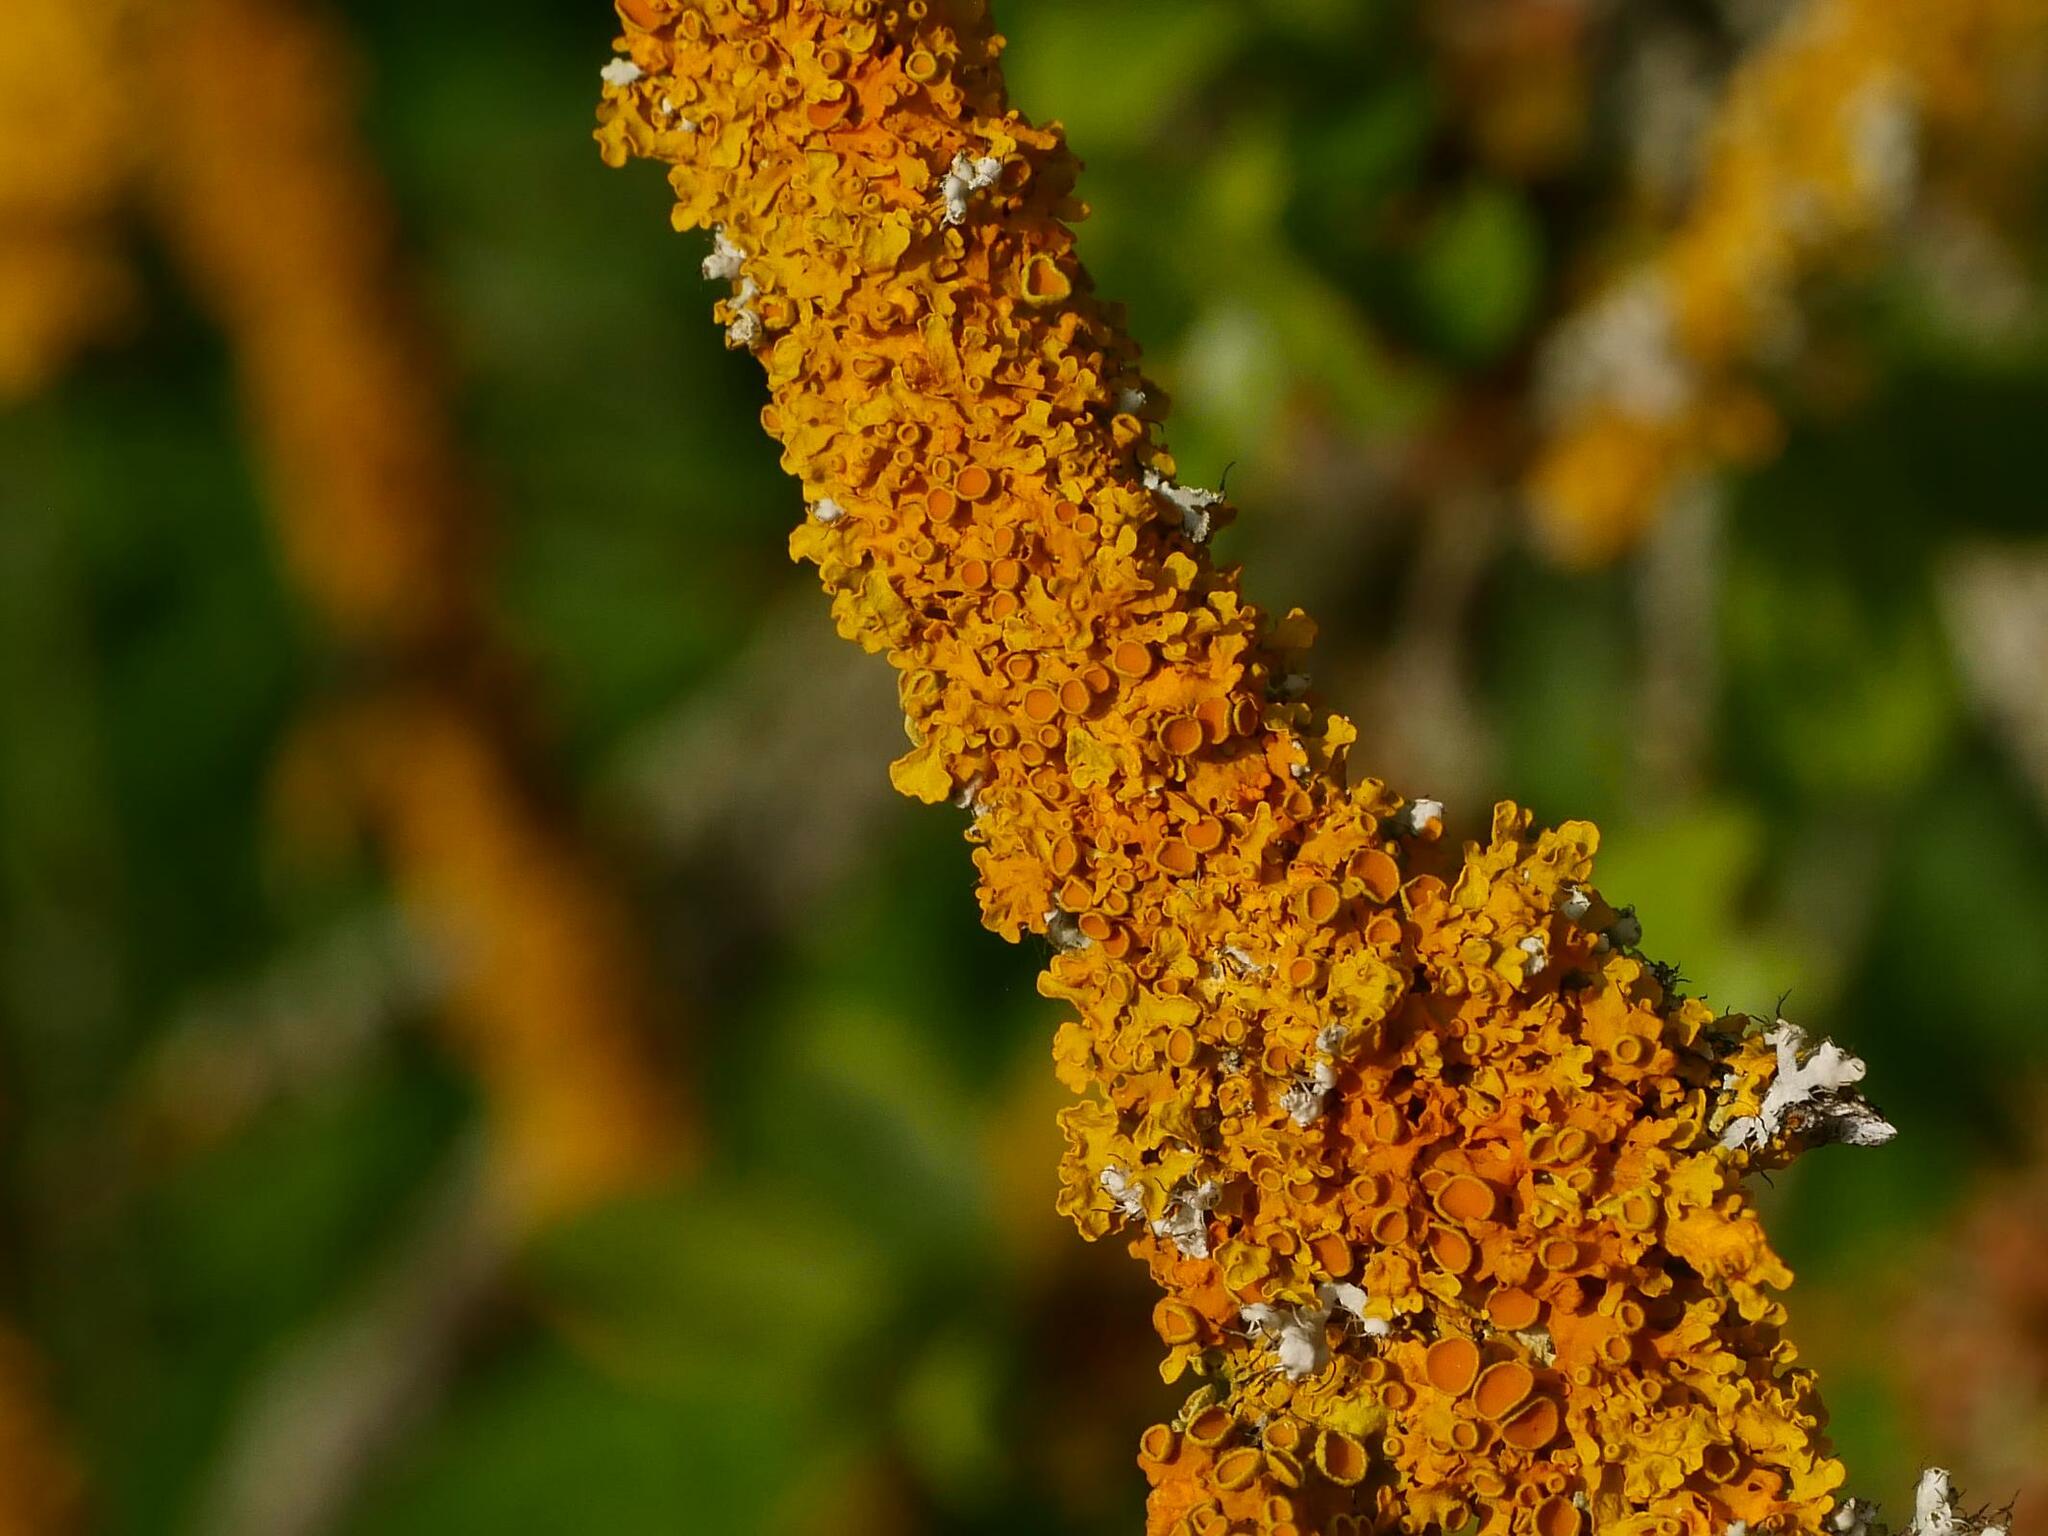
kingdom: Fungi
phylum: Ascomycota
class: Lecanoromycetes
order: Teloschistales
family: Teloschistaceae
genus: Xanthoria
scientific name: Xanthoria parietina
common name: Common orange lichen
